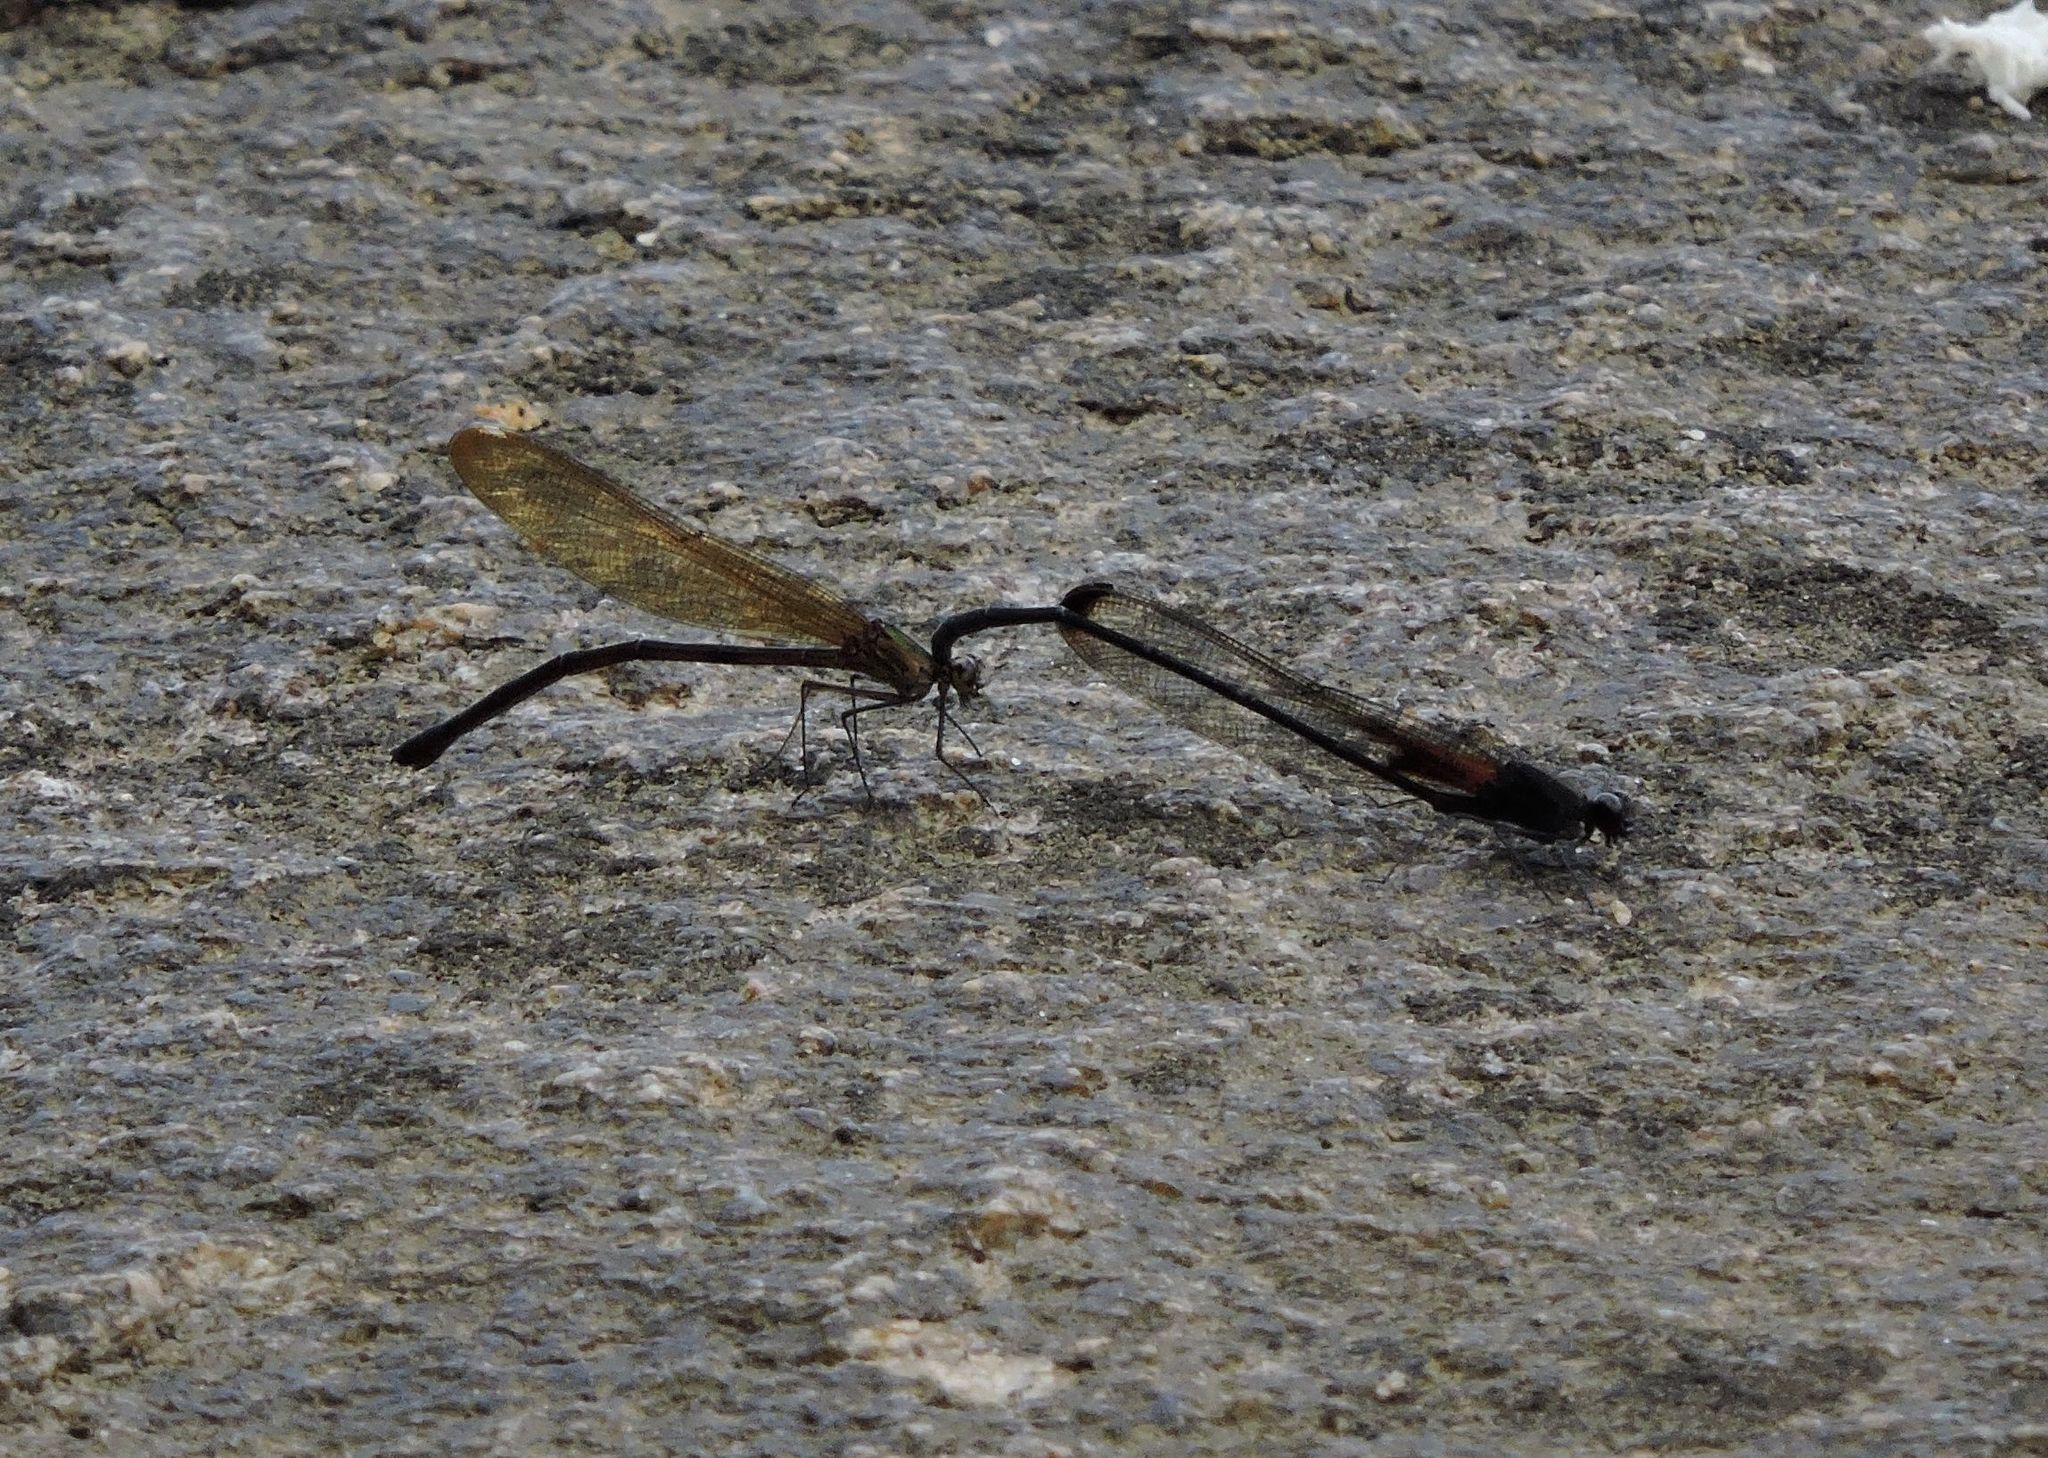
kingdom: Animalia
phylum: Arthropoda
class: Insecta
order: Odonata
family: Calopterygidae
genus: Hetaerina
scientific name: Hetaerina titia
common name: Smoky rubyspot
